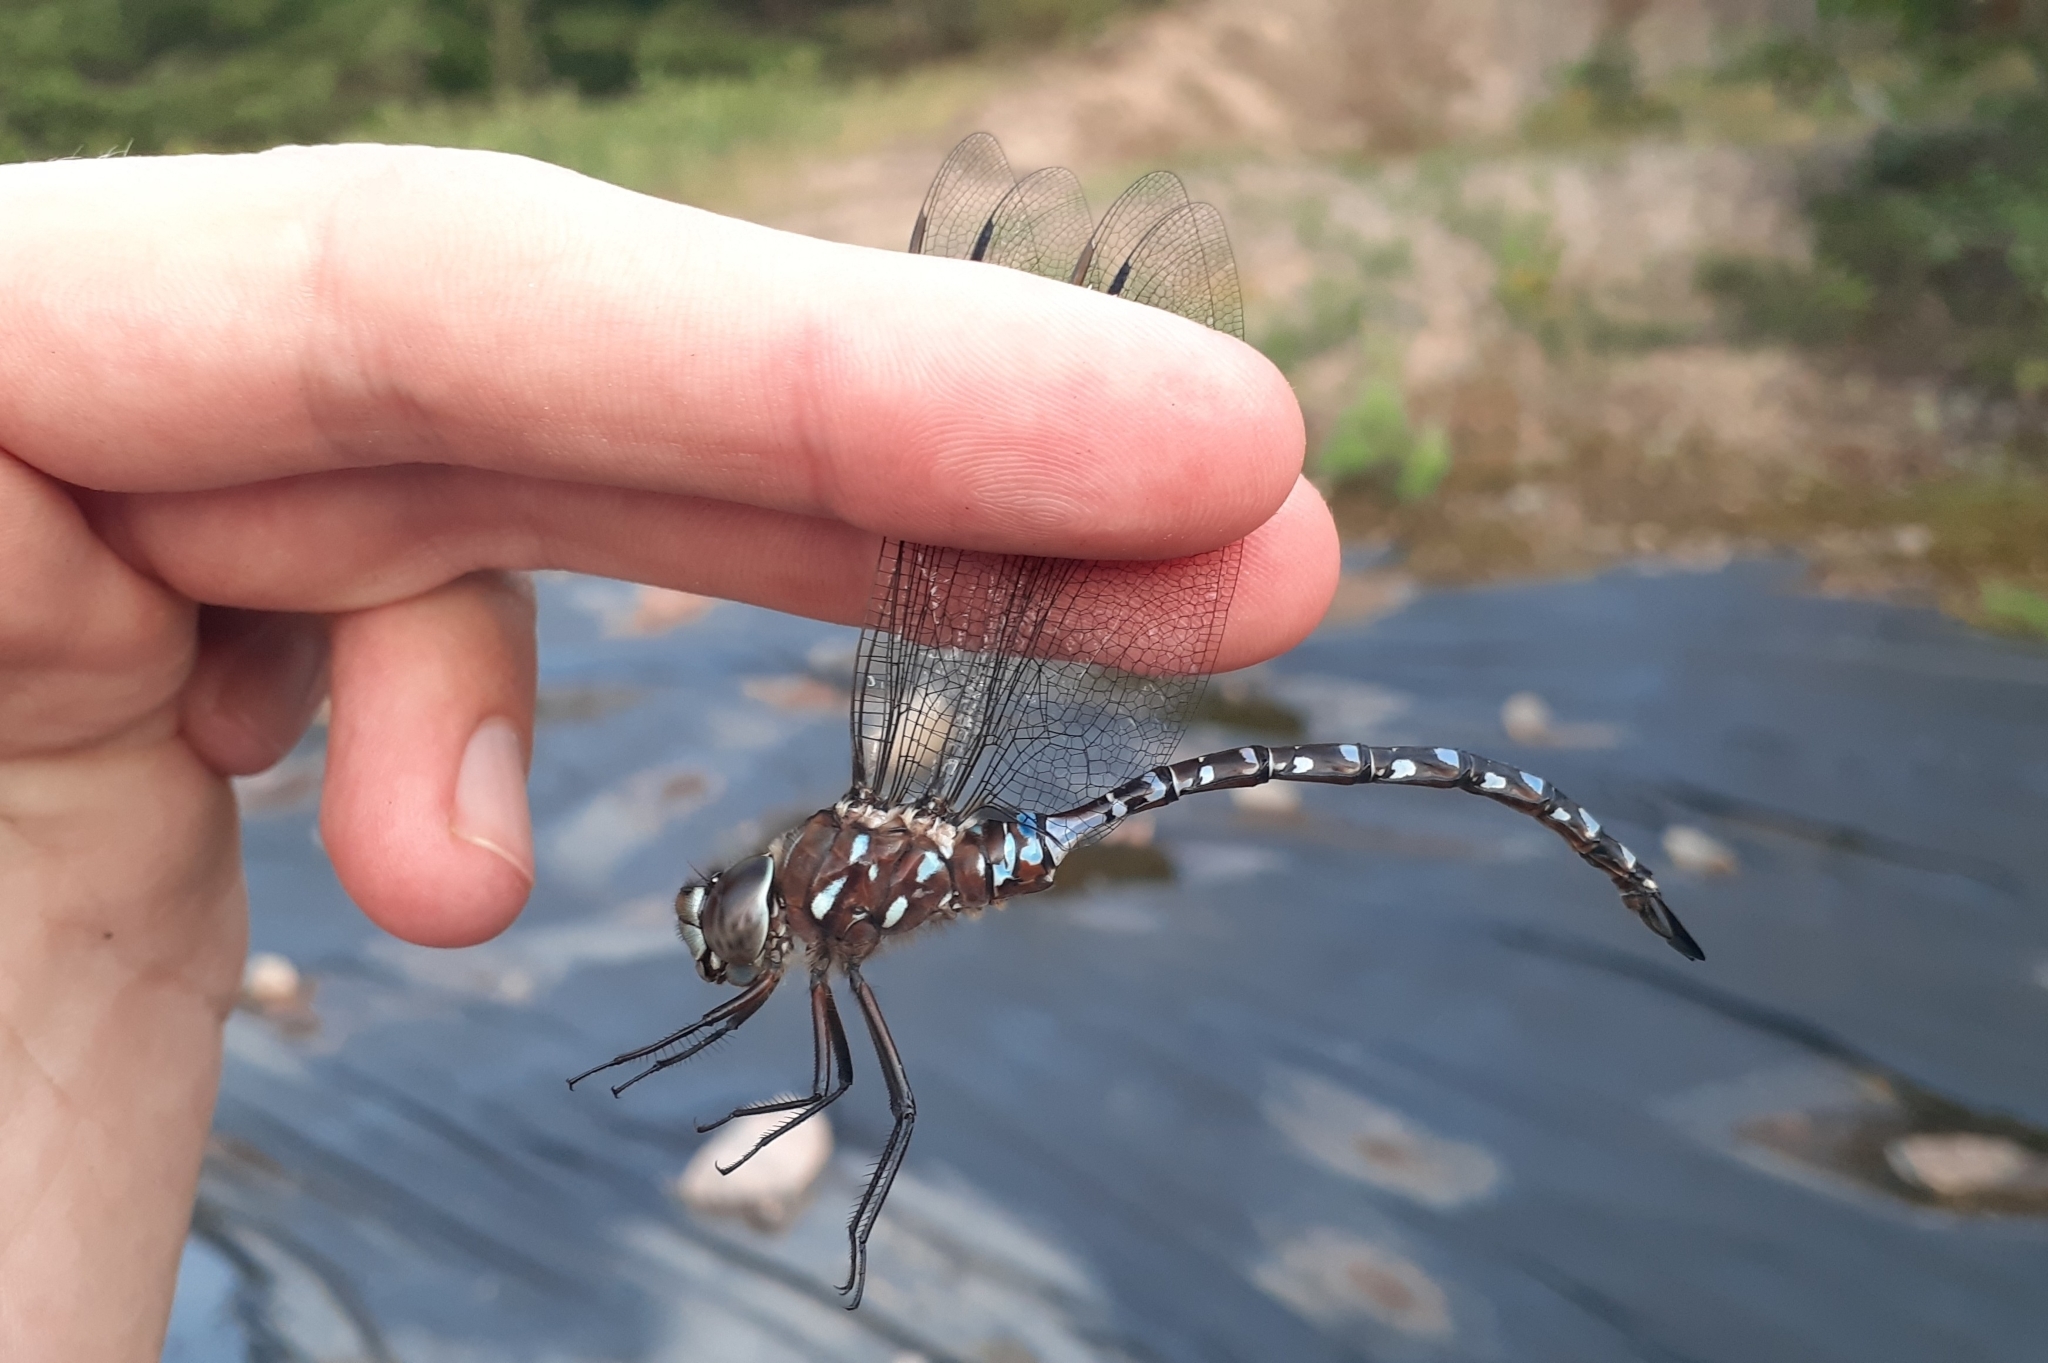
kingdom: Animalia
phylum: Arthropoda
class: Insecta
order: Odonata
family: Aeshnidae
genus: Aeshna
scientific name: Aeshna interrupta
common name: Variable darner
